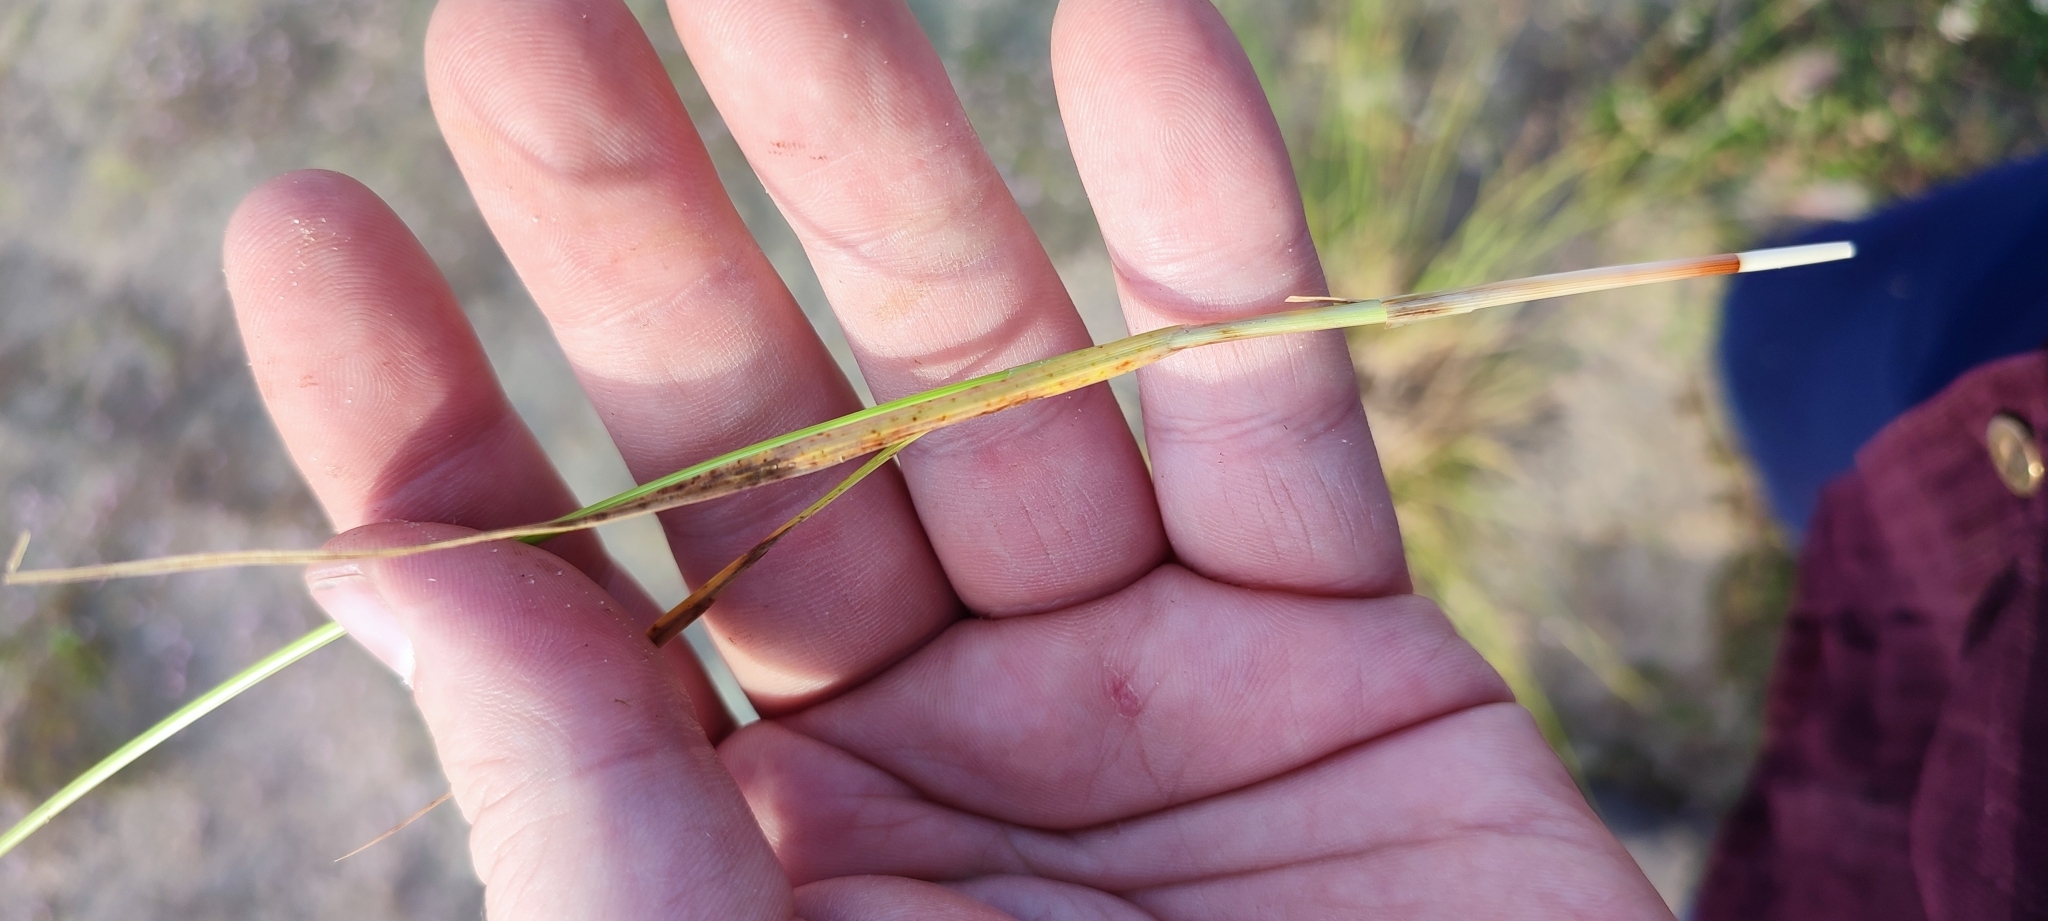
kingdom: Plantae
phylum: Tracheophyta
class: Liliopsida
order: Poales
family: Cyperaceae
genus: Carex
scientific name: Carex leporina
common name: Oval sedge
